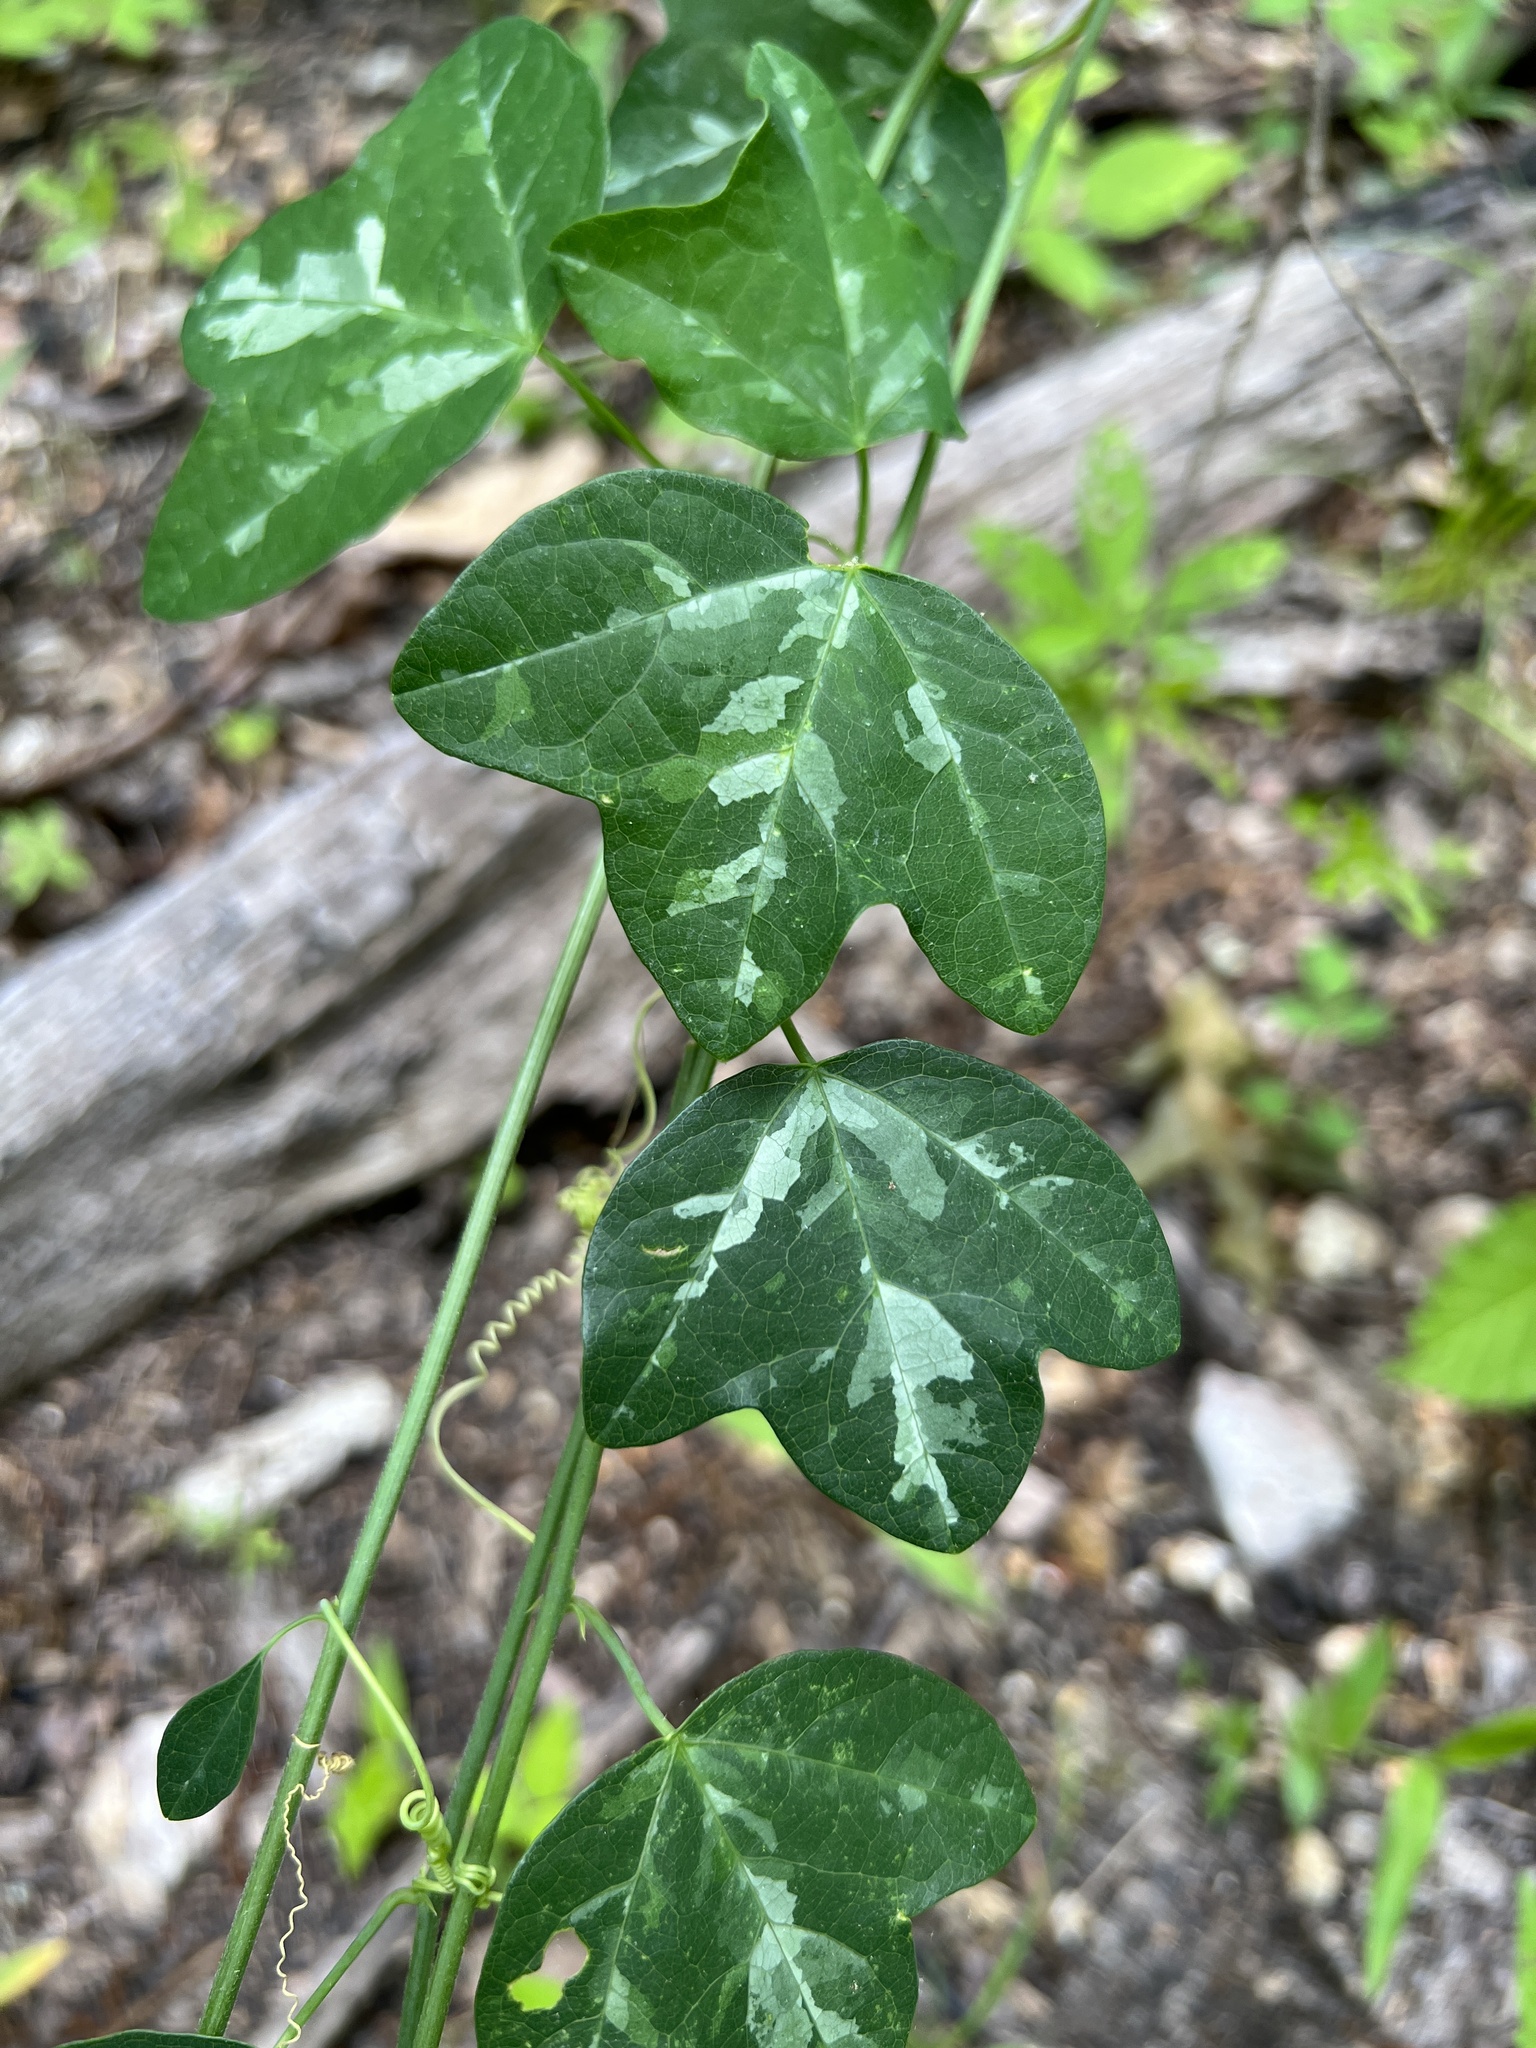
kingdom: Plantae
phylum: Tracheophyta
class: Magnoliopsida
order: Malpighiales
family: Passifloraceae
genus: Passiflora
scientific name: Passiflora lutea
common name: Yellow passionflower
